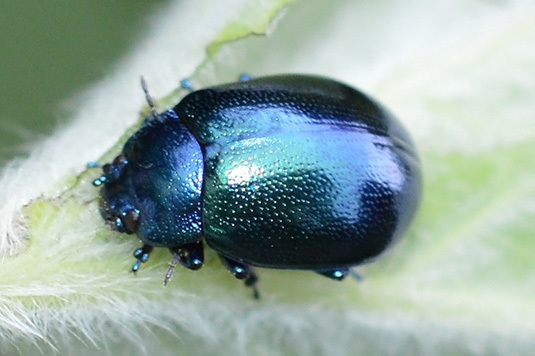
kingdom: Animalia
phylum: Arthropoda
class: Insecta
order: Coleoptera
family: Chrysomelidae
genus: Chrysolina
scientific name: Chrysolina coerulans
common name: Blue mint beetle
